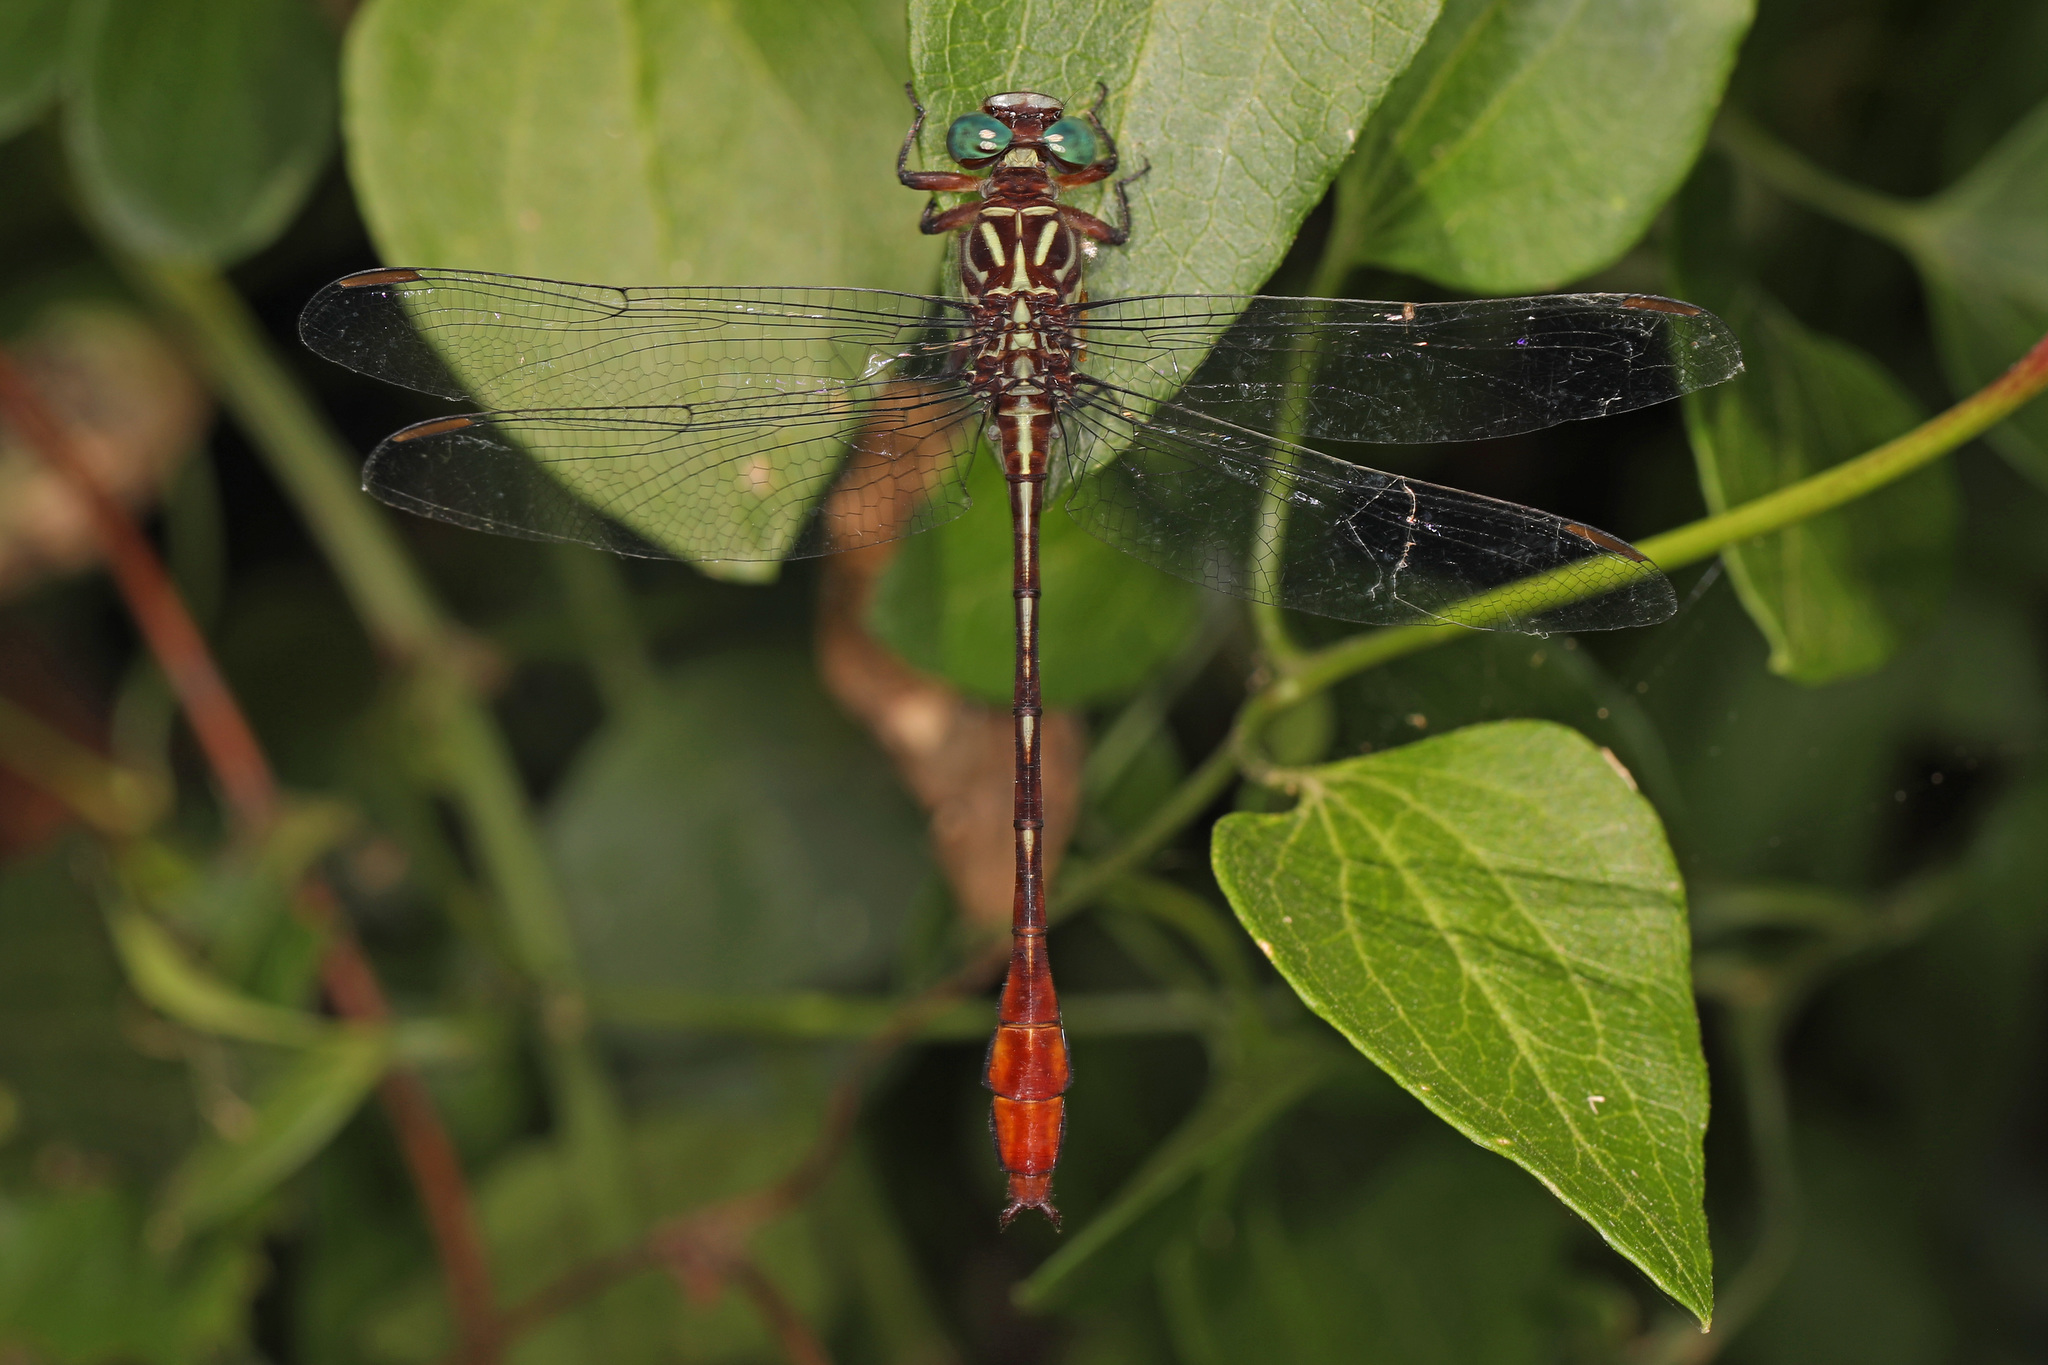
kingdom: Animalia
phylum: Arthropoda
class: Insecta
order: Odonata
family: Gomphidae
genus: Stylurus
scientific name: Stylurus plagiatus
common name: Russet-tipped clubtail
